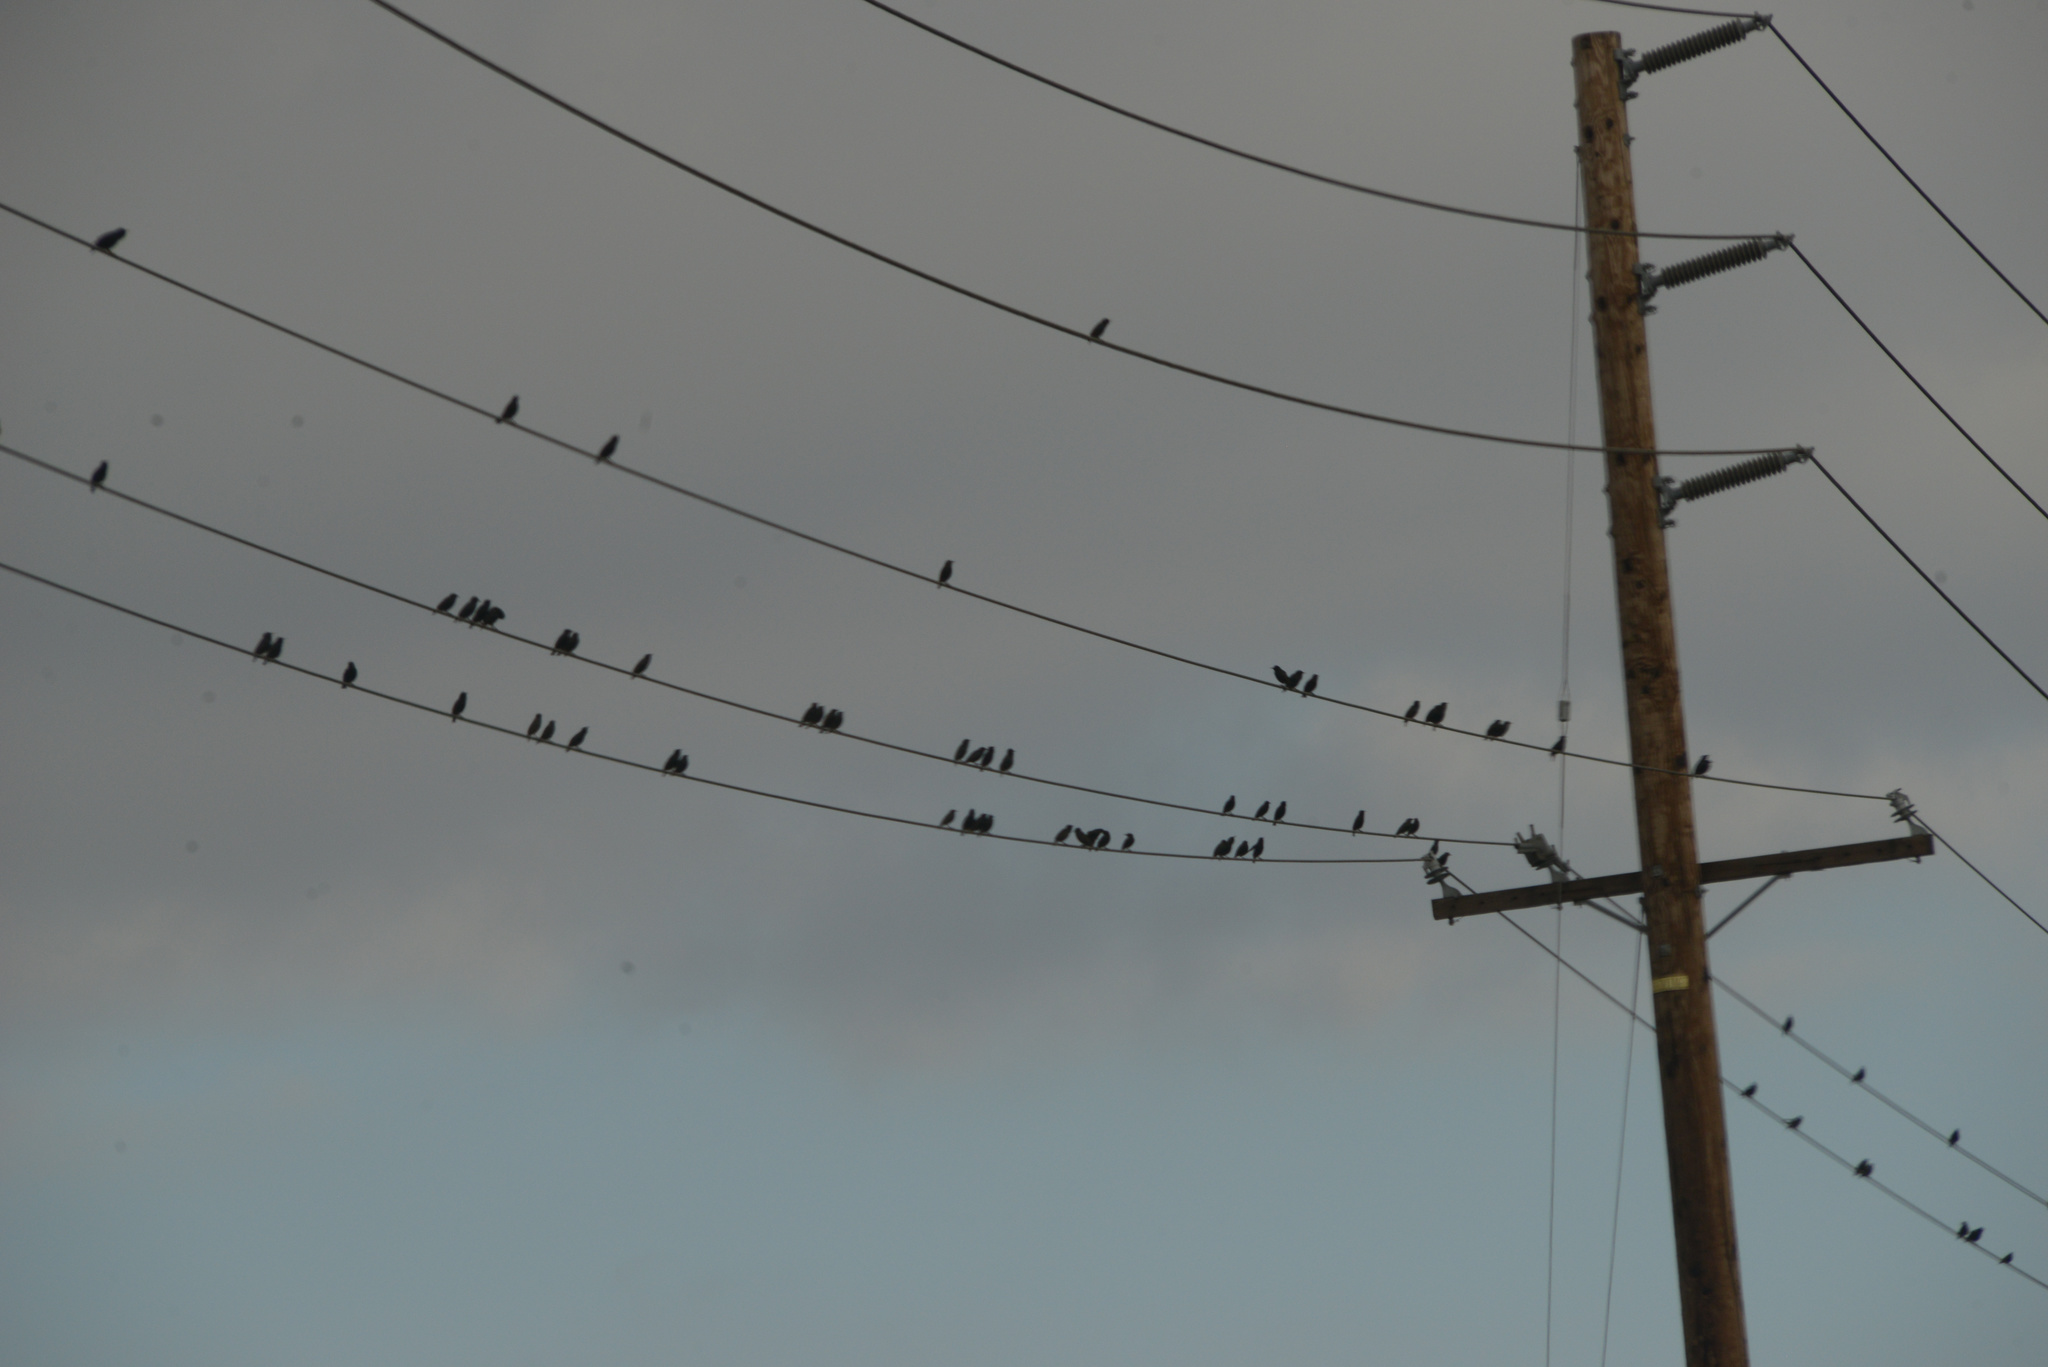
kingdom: Animalia
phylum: Chordata
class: Aves
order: Passeriformes
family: Sturnidae
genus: Sturnus
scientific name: Sturnus vulgaris
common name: Common starling
